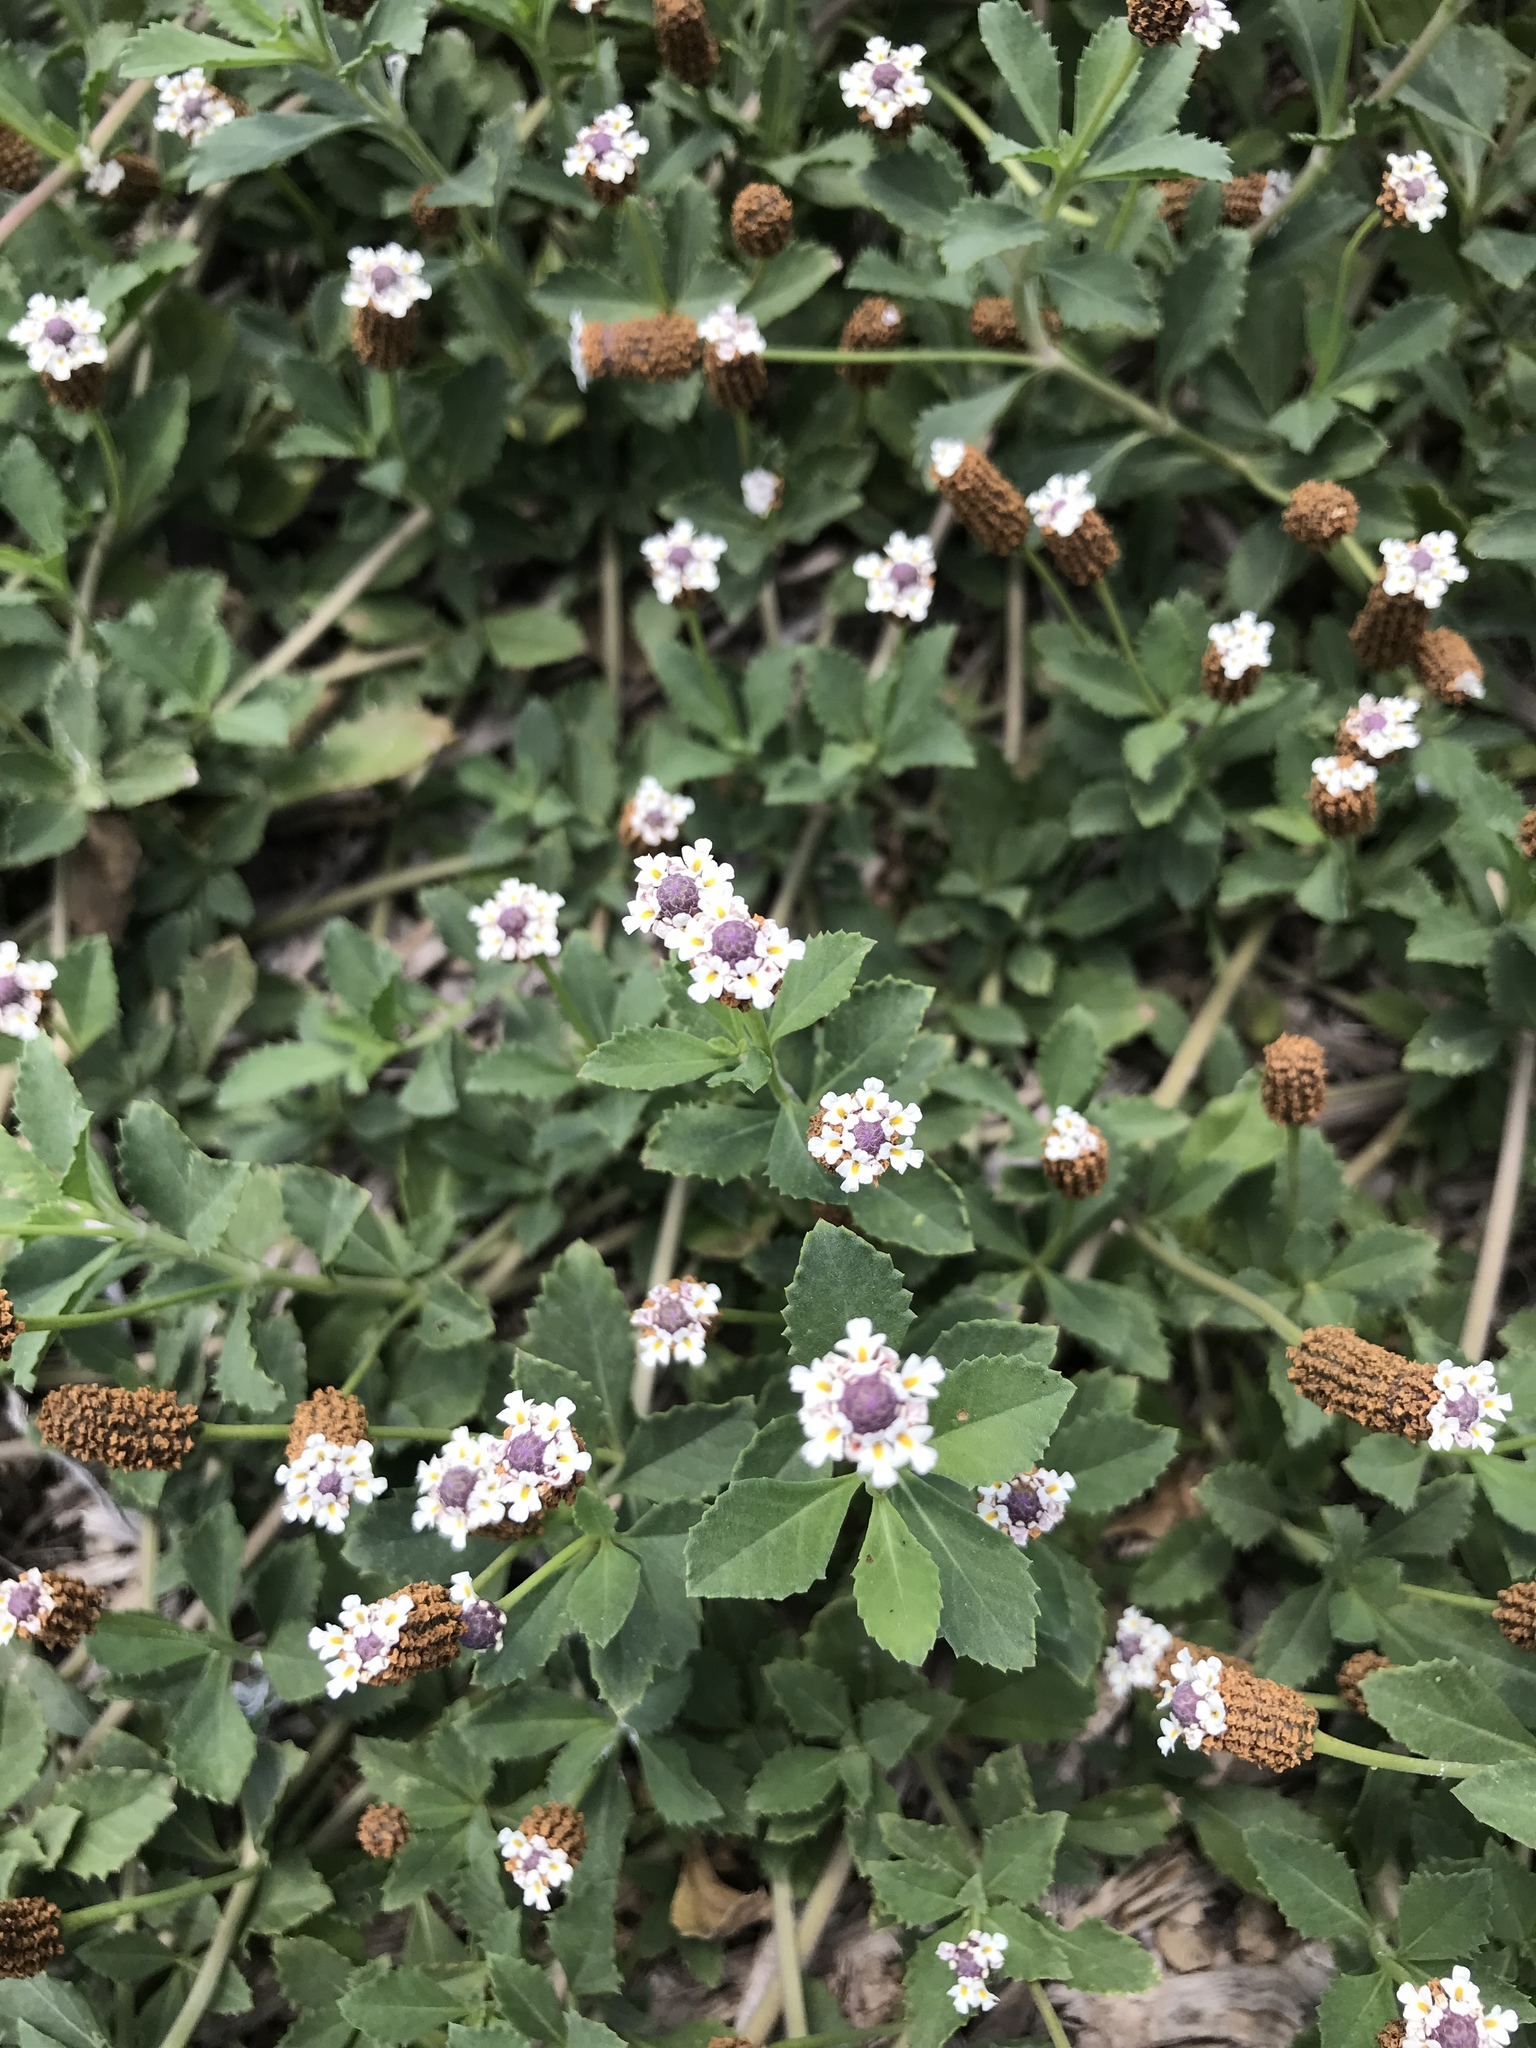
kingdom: Plantae
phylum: Tracheophyta
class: Magnoliopsida
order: Lamiales
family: Verbenaceae
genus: Phyla
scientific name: Phyla nodiflora
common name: Frogfruit
